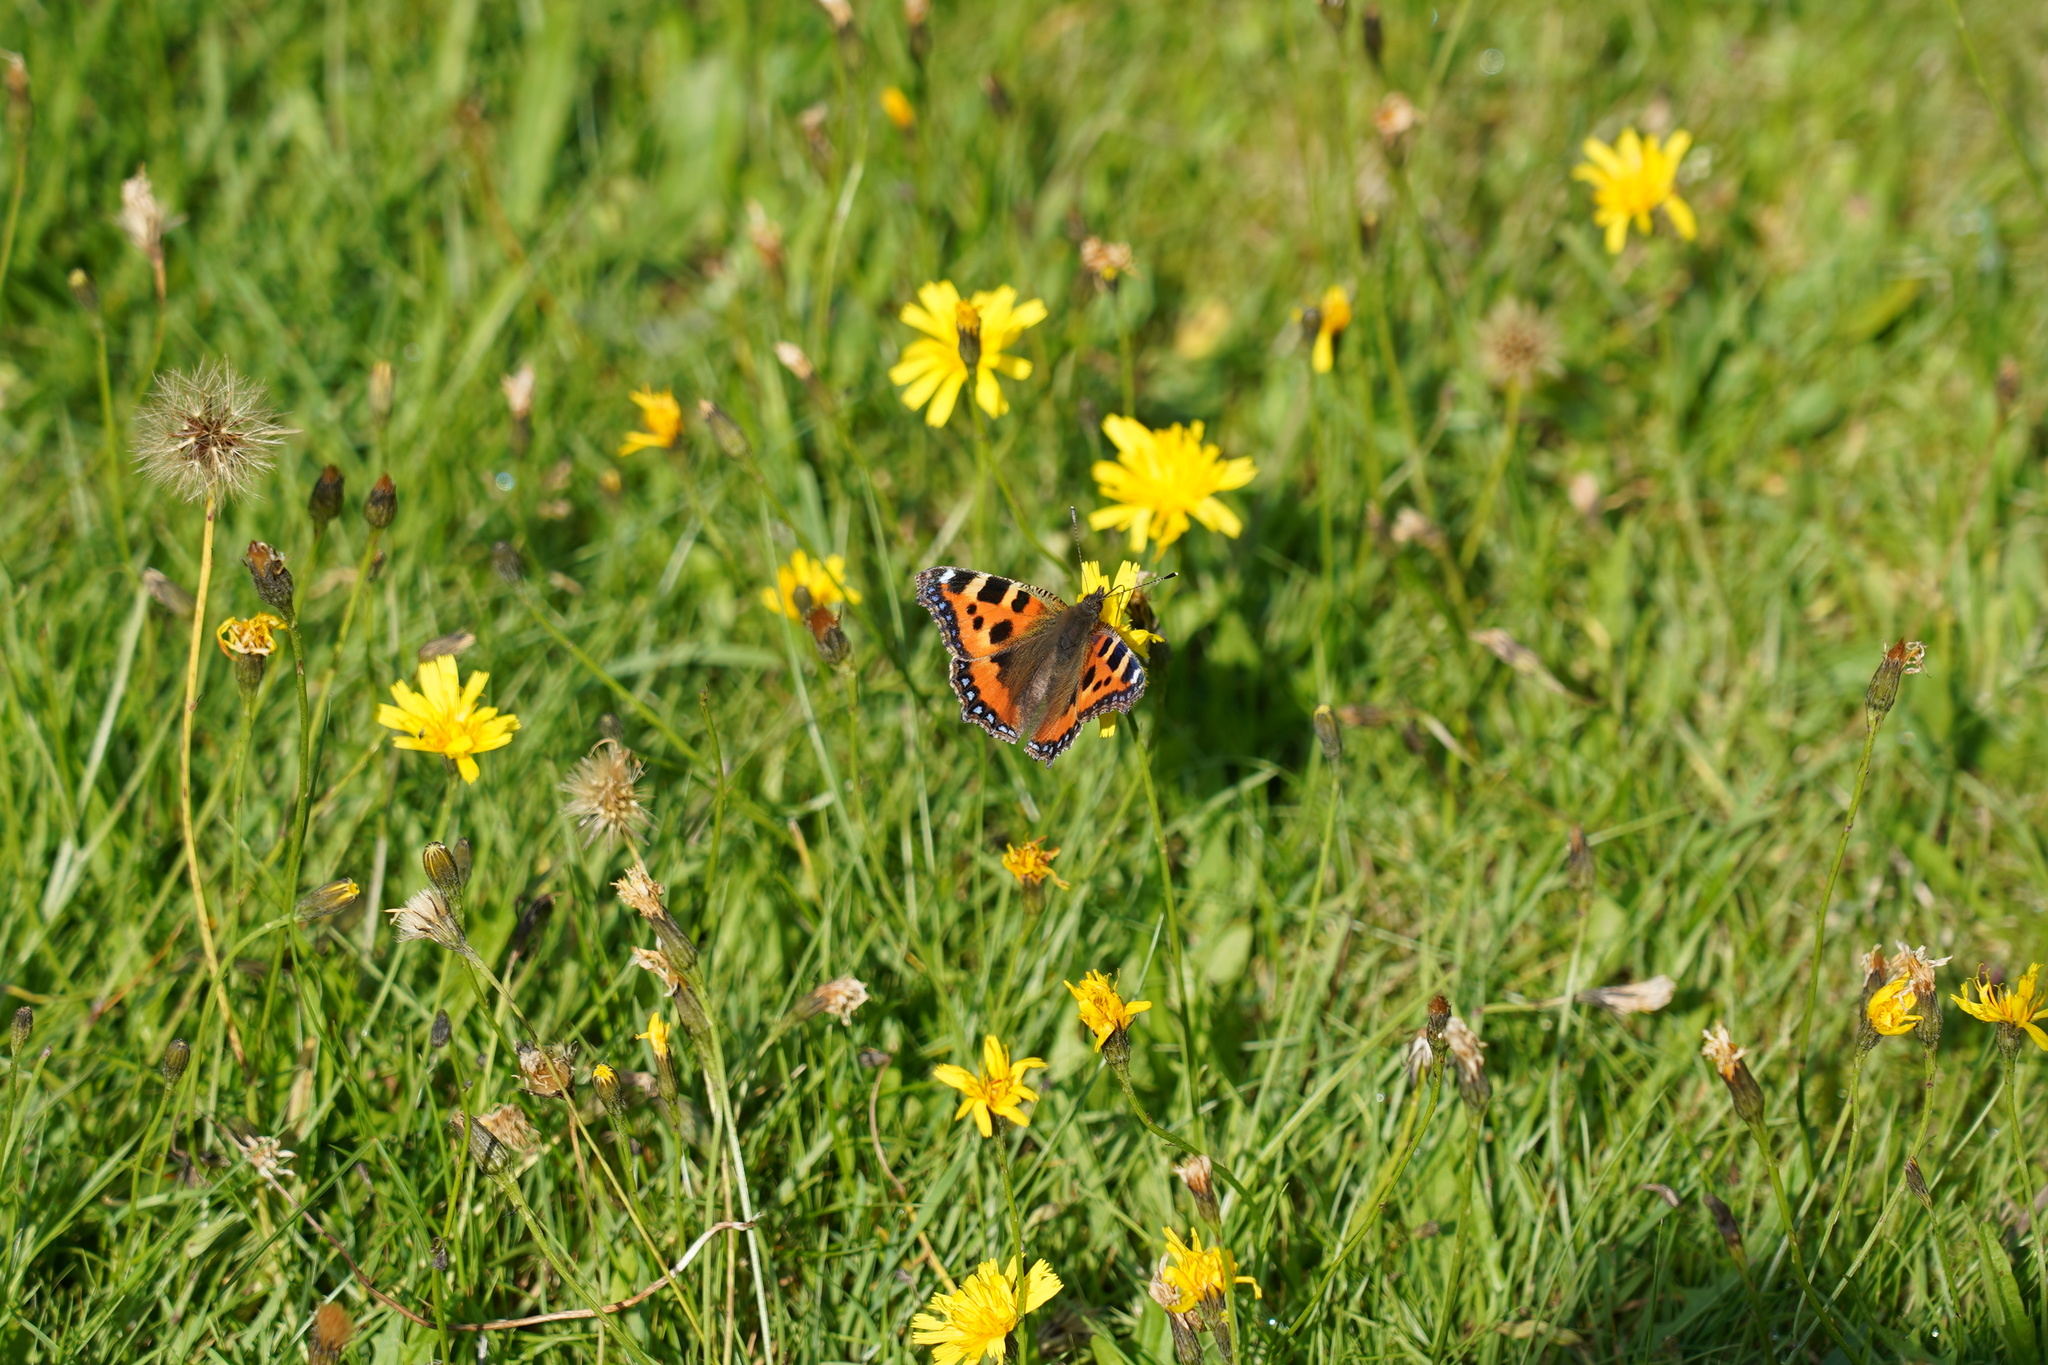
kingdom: Animalia
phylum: Arthropoda
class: Insecta
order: Lepidoptera
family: Nymphalidae
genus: Aglais
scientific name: Aglais urticae
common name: Small tortoiseshell
